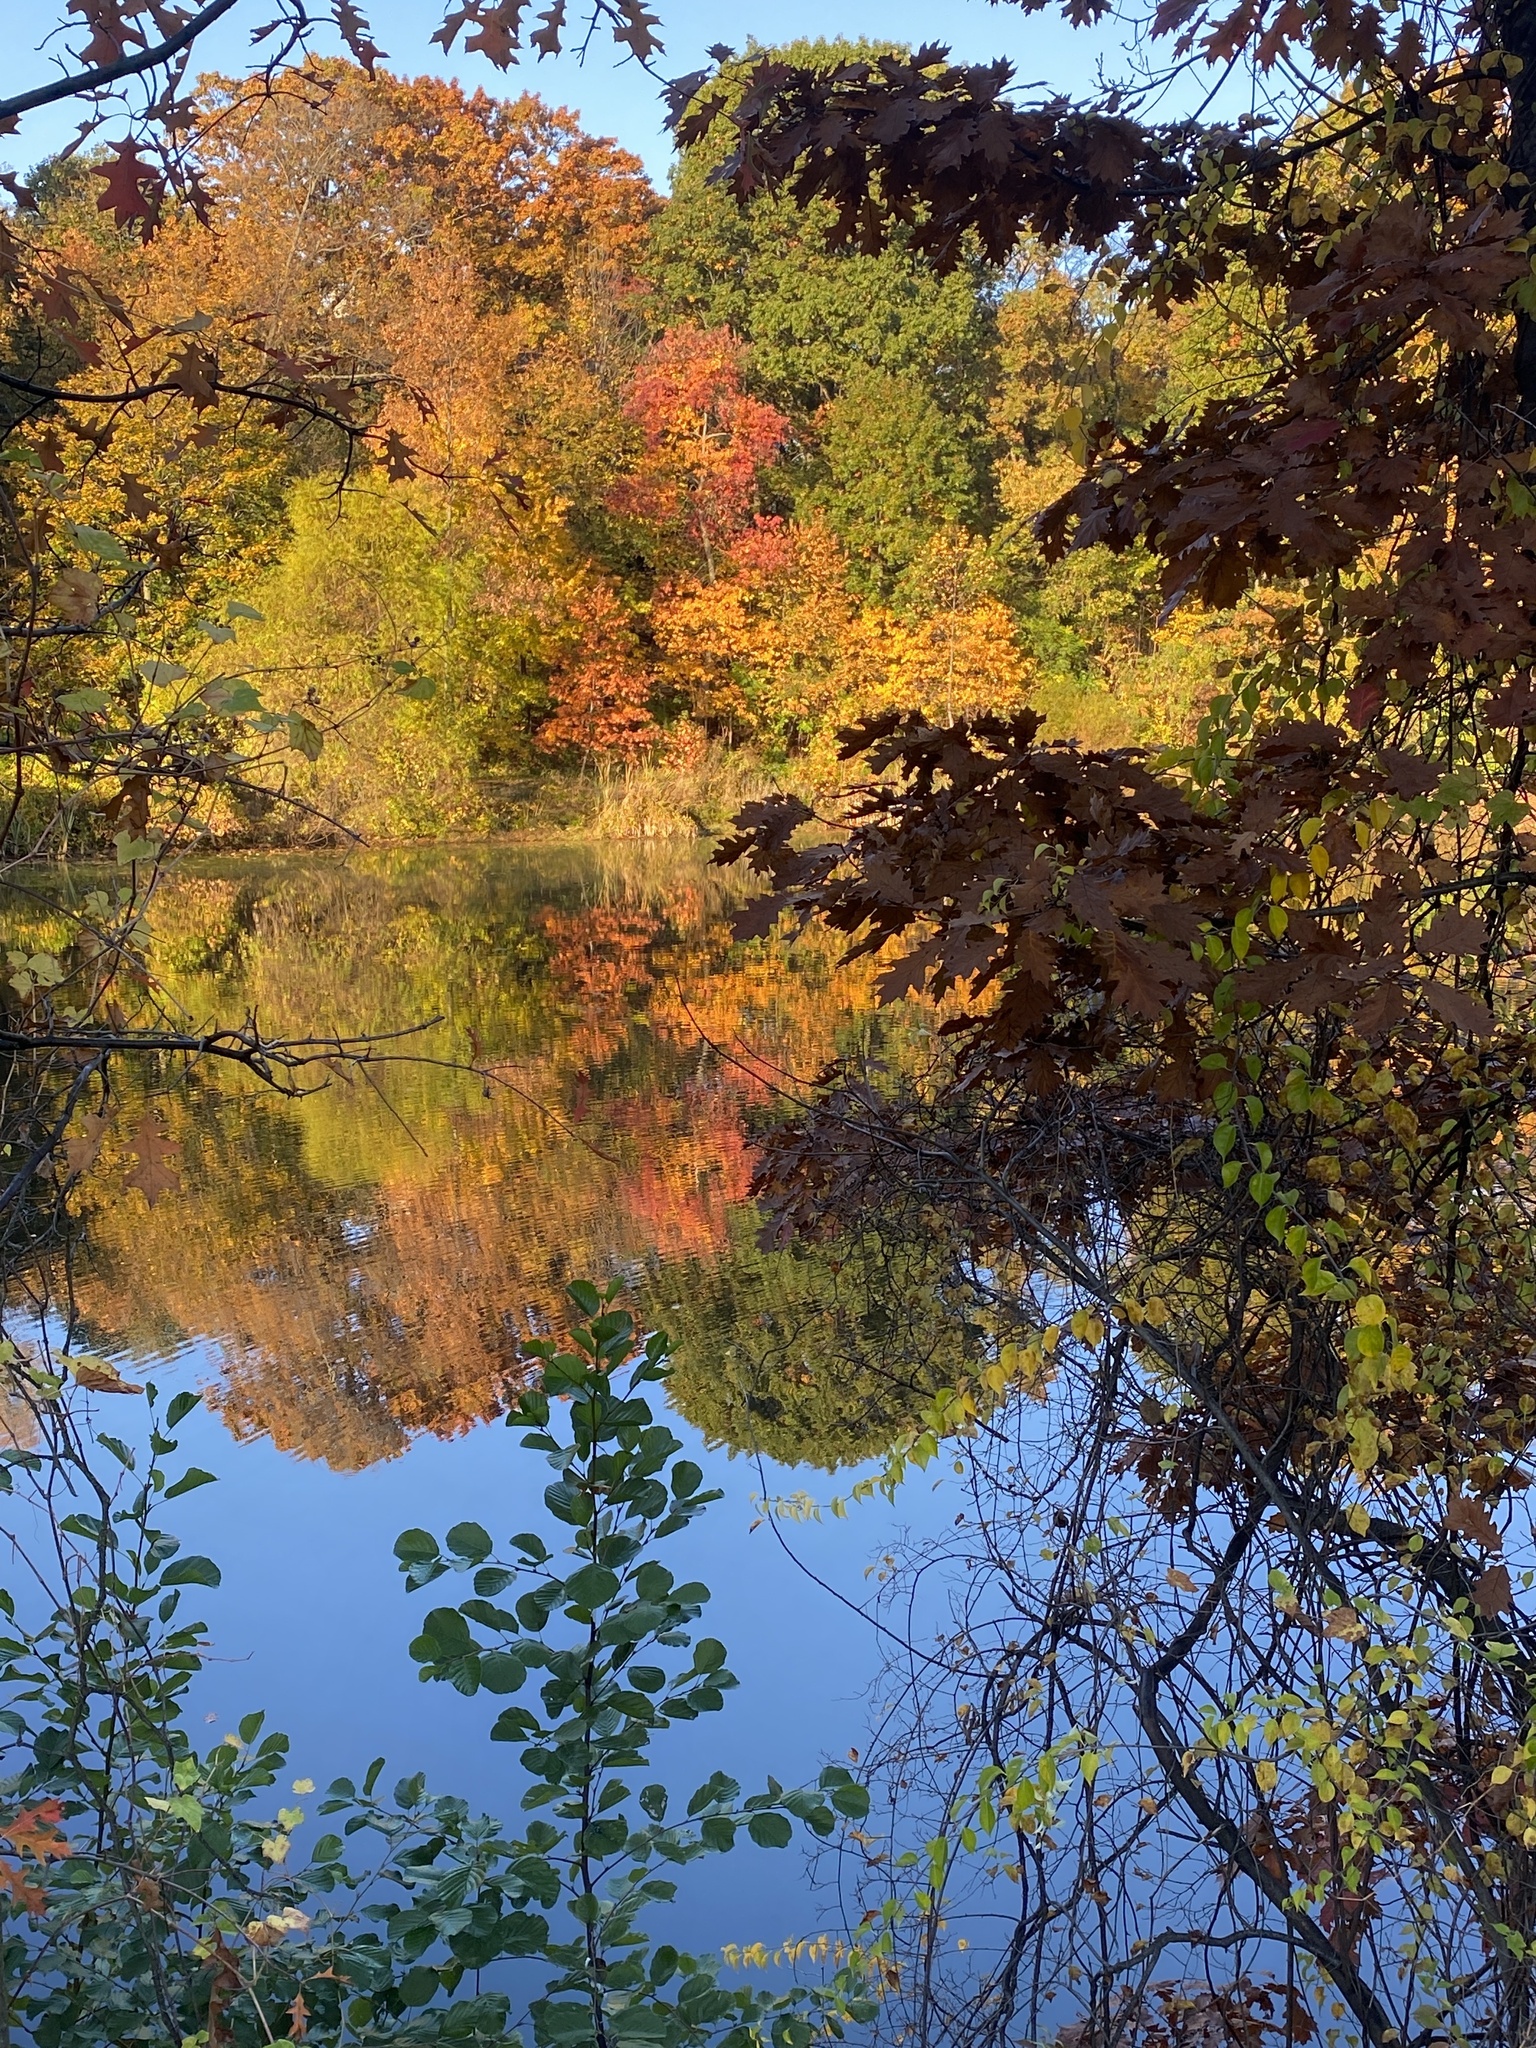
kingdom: Animalia
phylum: Chordata
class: Aves
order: Anseriformes
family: Anatidae
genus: Anas
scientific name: Anas platyrhynchos
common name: Mallard
